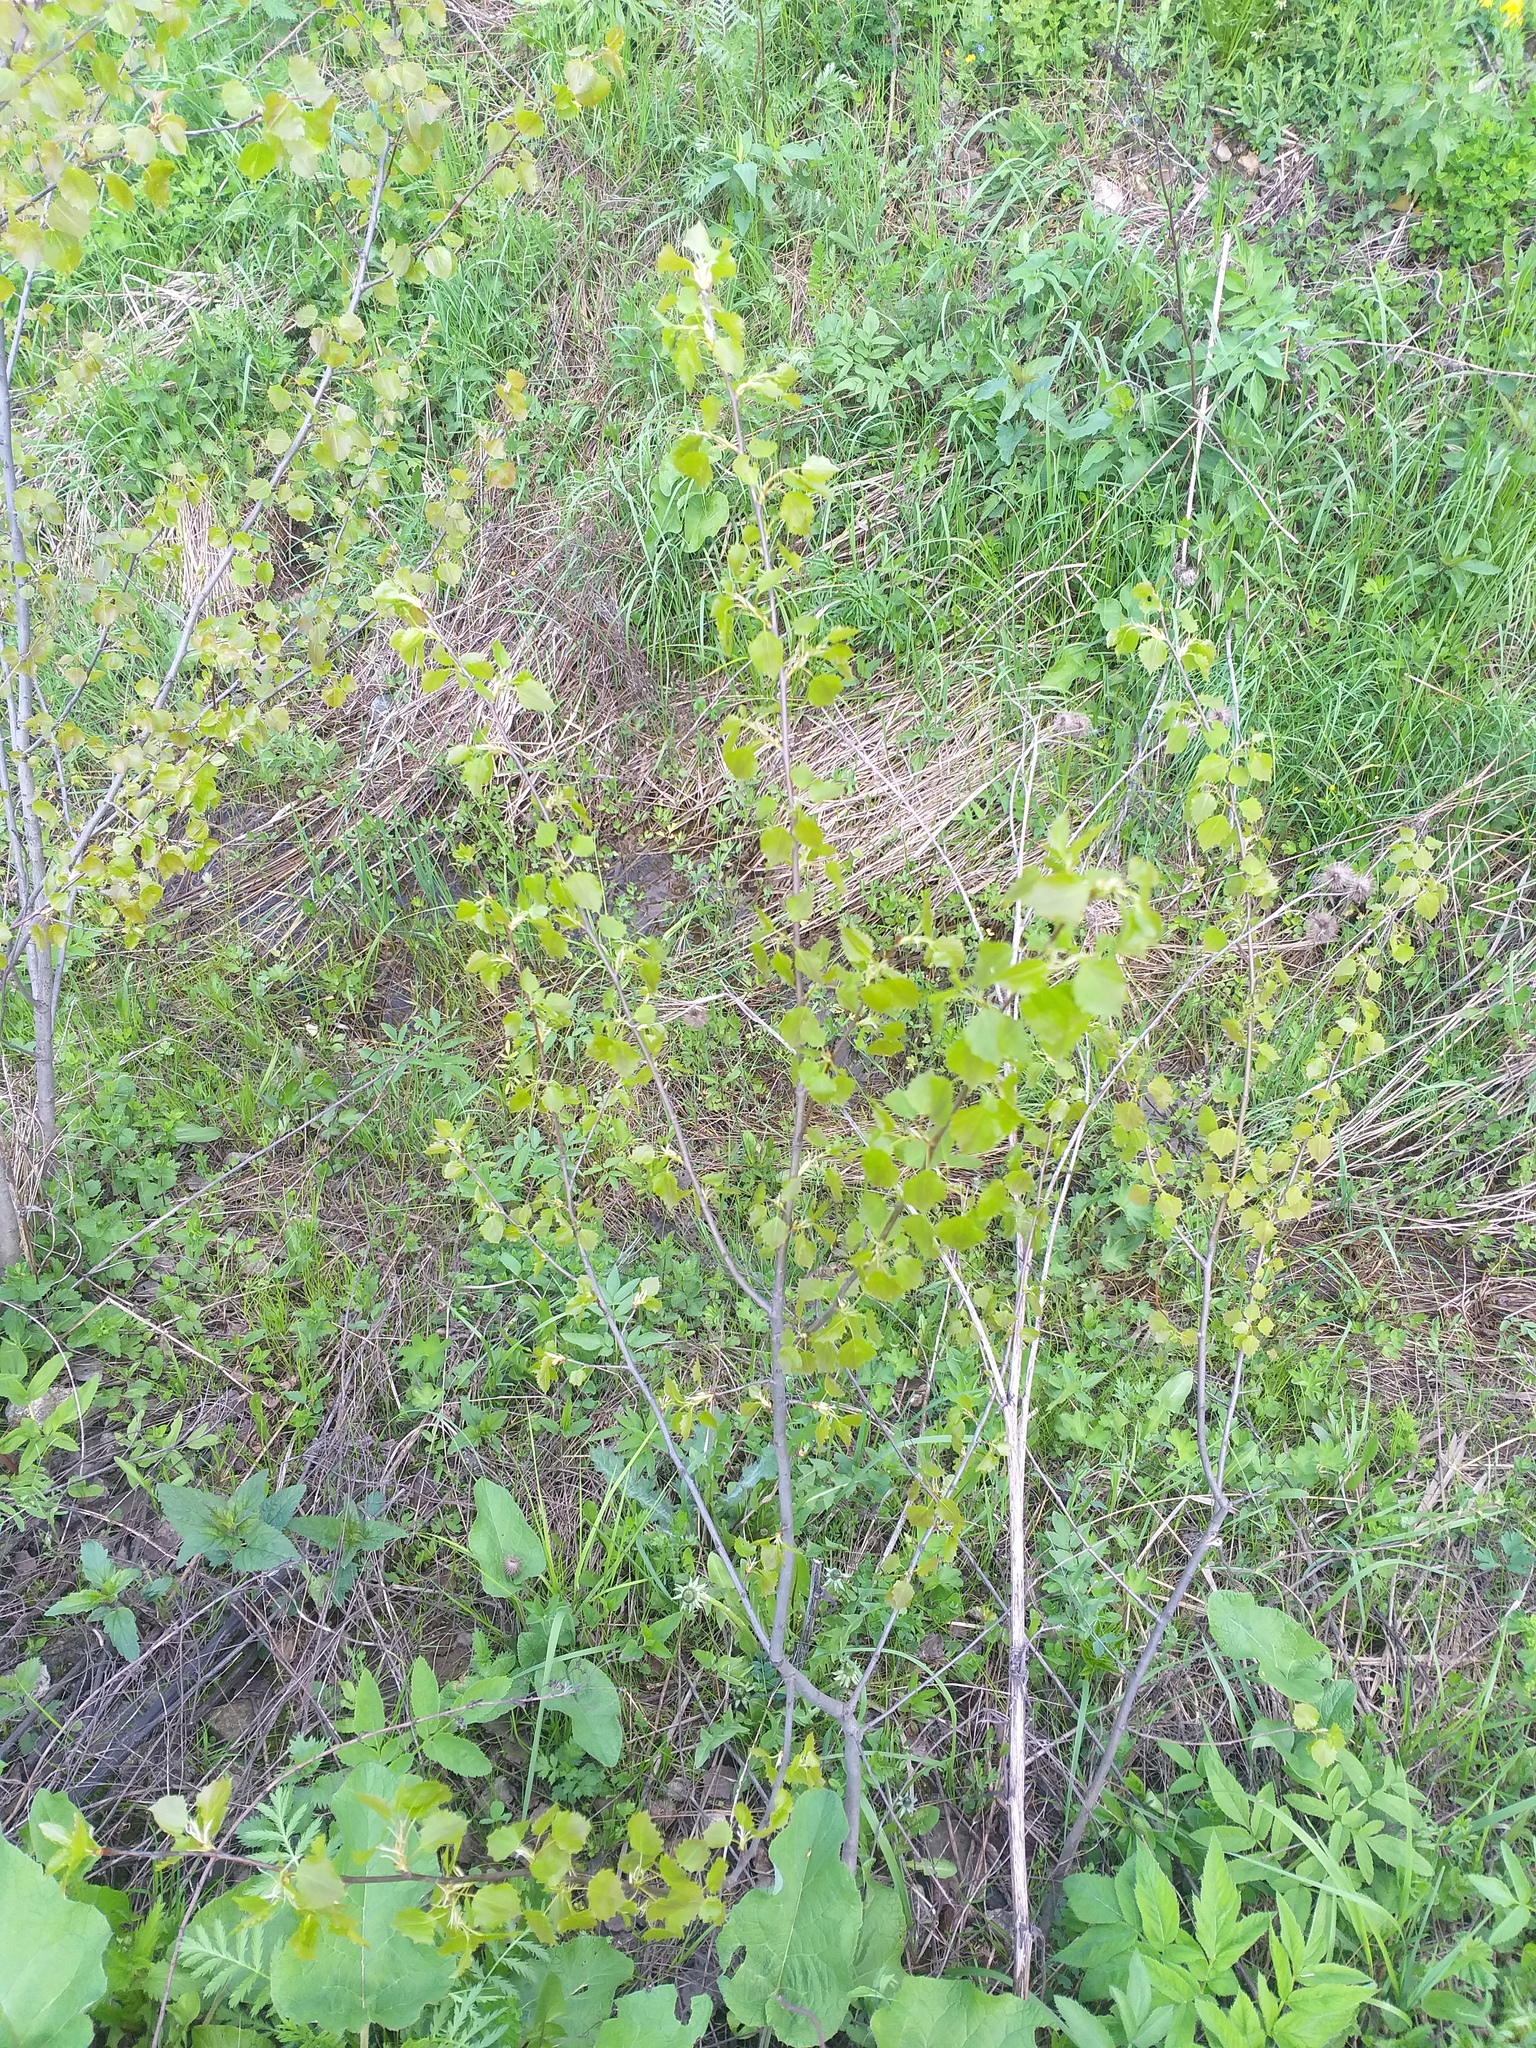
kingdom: Plantae
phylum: Tracheophyta
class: Magnoliopsida
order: Malpighiales
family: Salicaceae
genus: Populus
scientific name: Populus tremula
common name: European aspen
